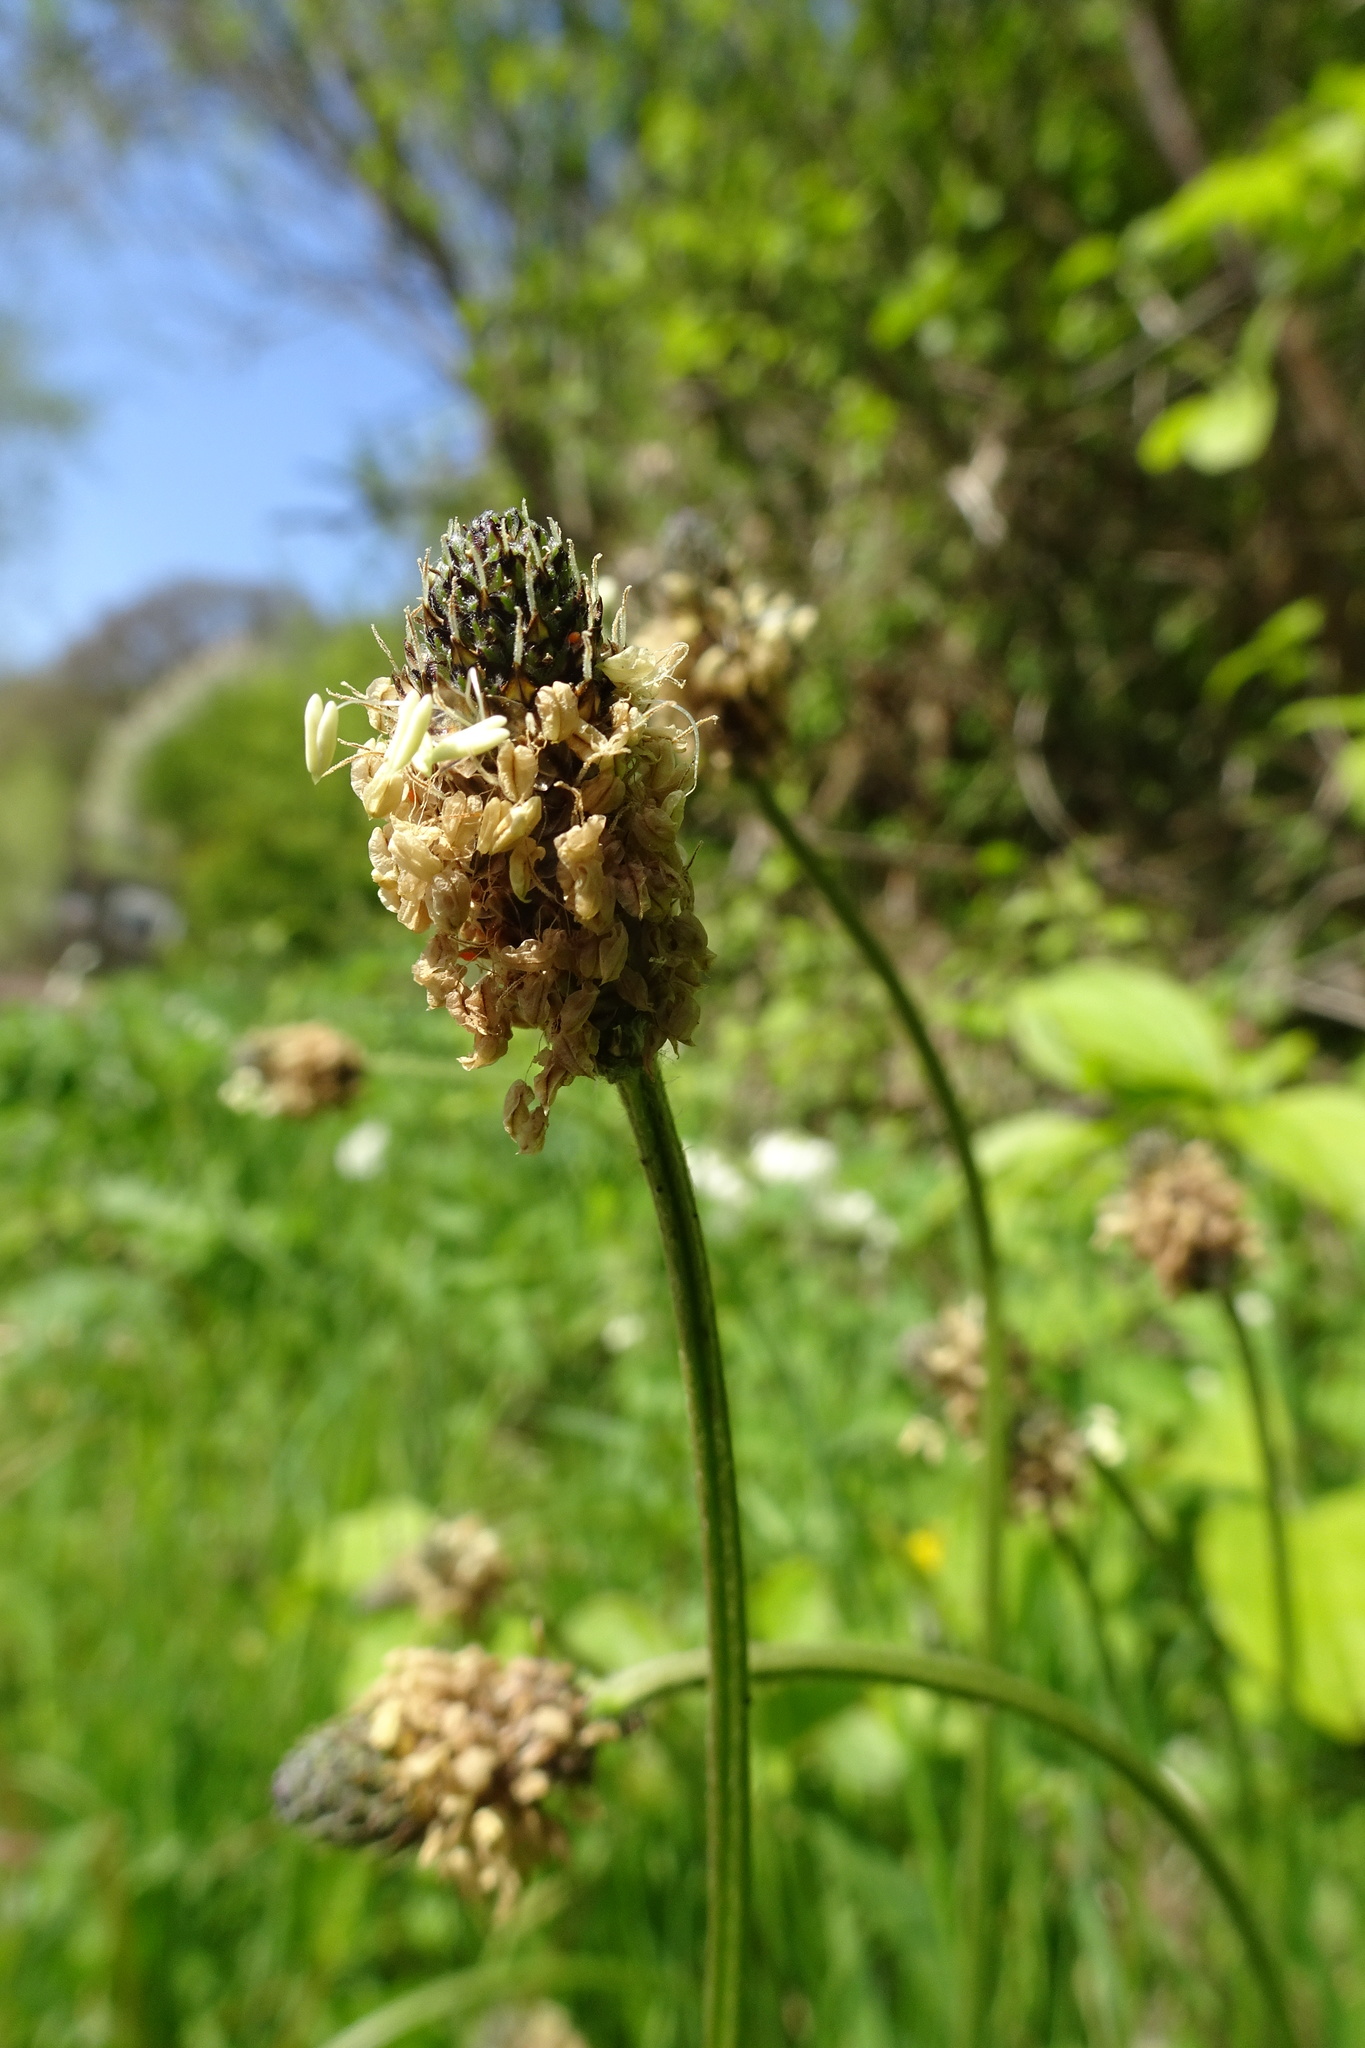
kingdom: Plantae
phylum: Tracheophyta
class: Magnoliopsida
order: Lamiales
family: Plantaginaceae
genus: Plantago
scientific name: Plantago lanceolata
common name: Ribwort plantain
